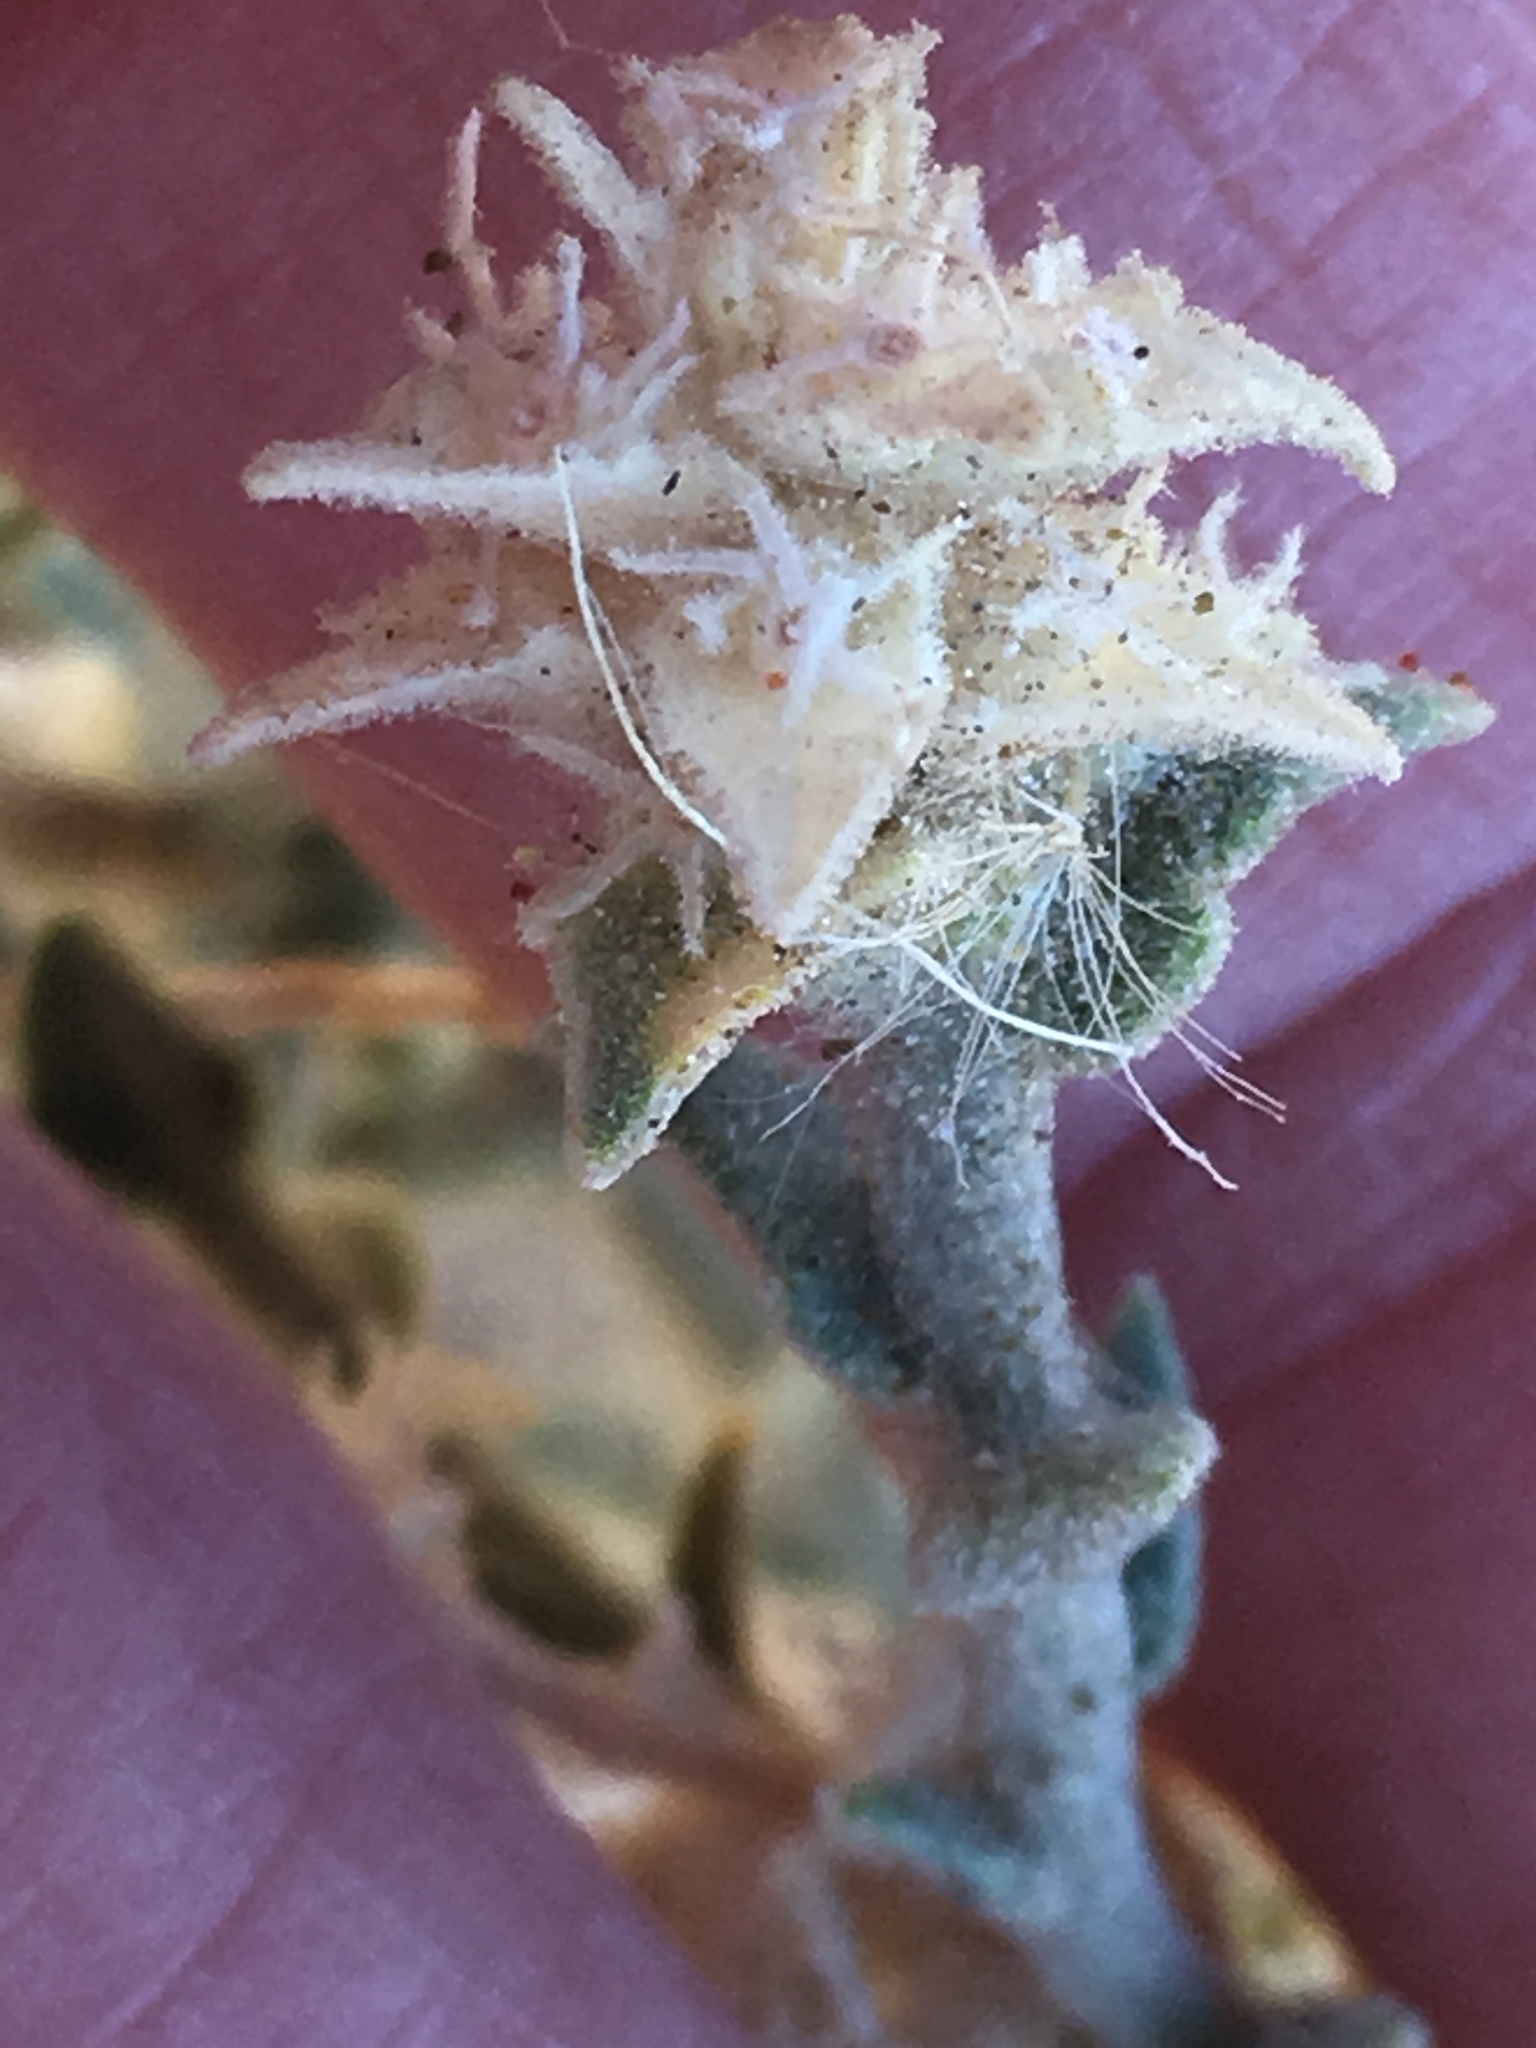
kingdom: Plantae
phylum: Tracheophyta
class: Magnoliopsida
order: Cornales
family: Loasaceae
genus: Petalonyx
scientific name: Petalonyx thurberi
